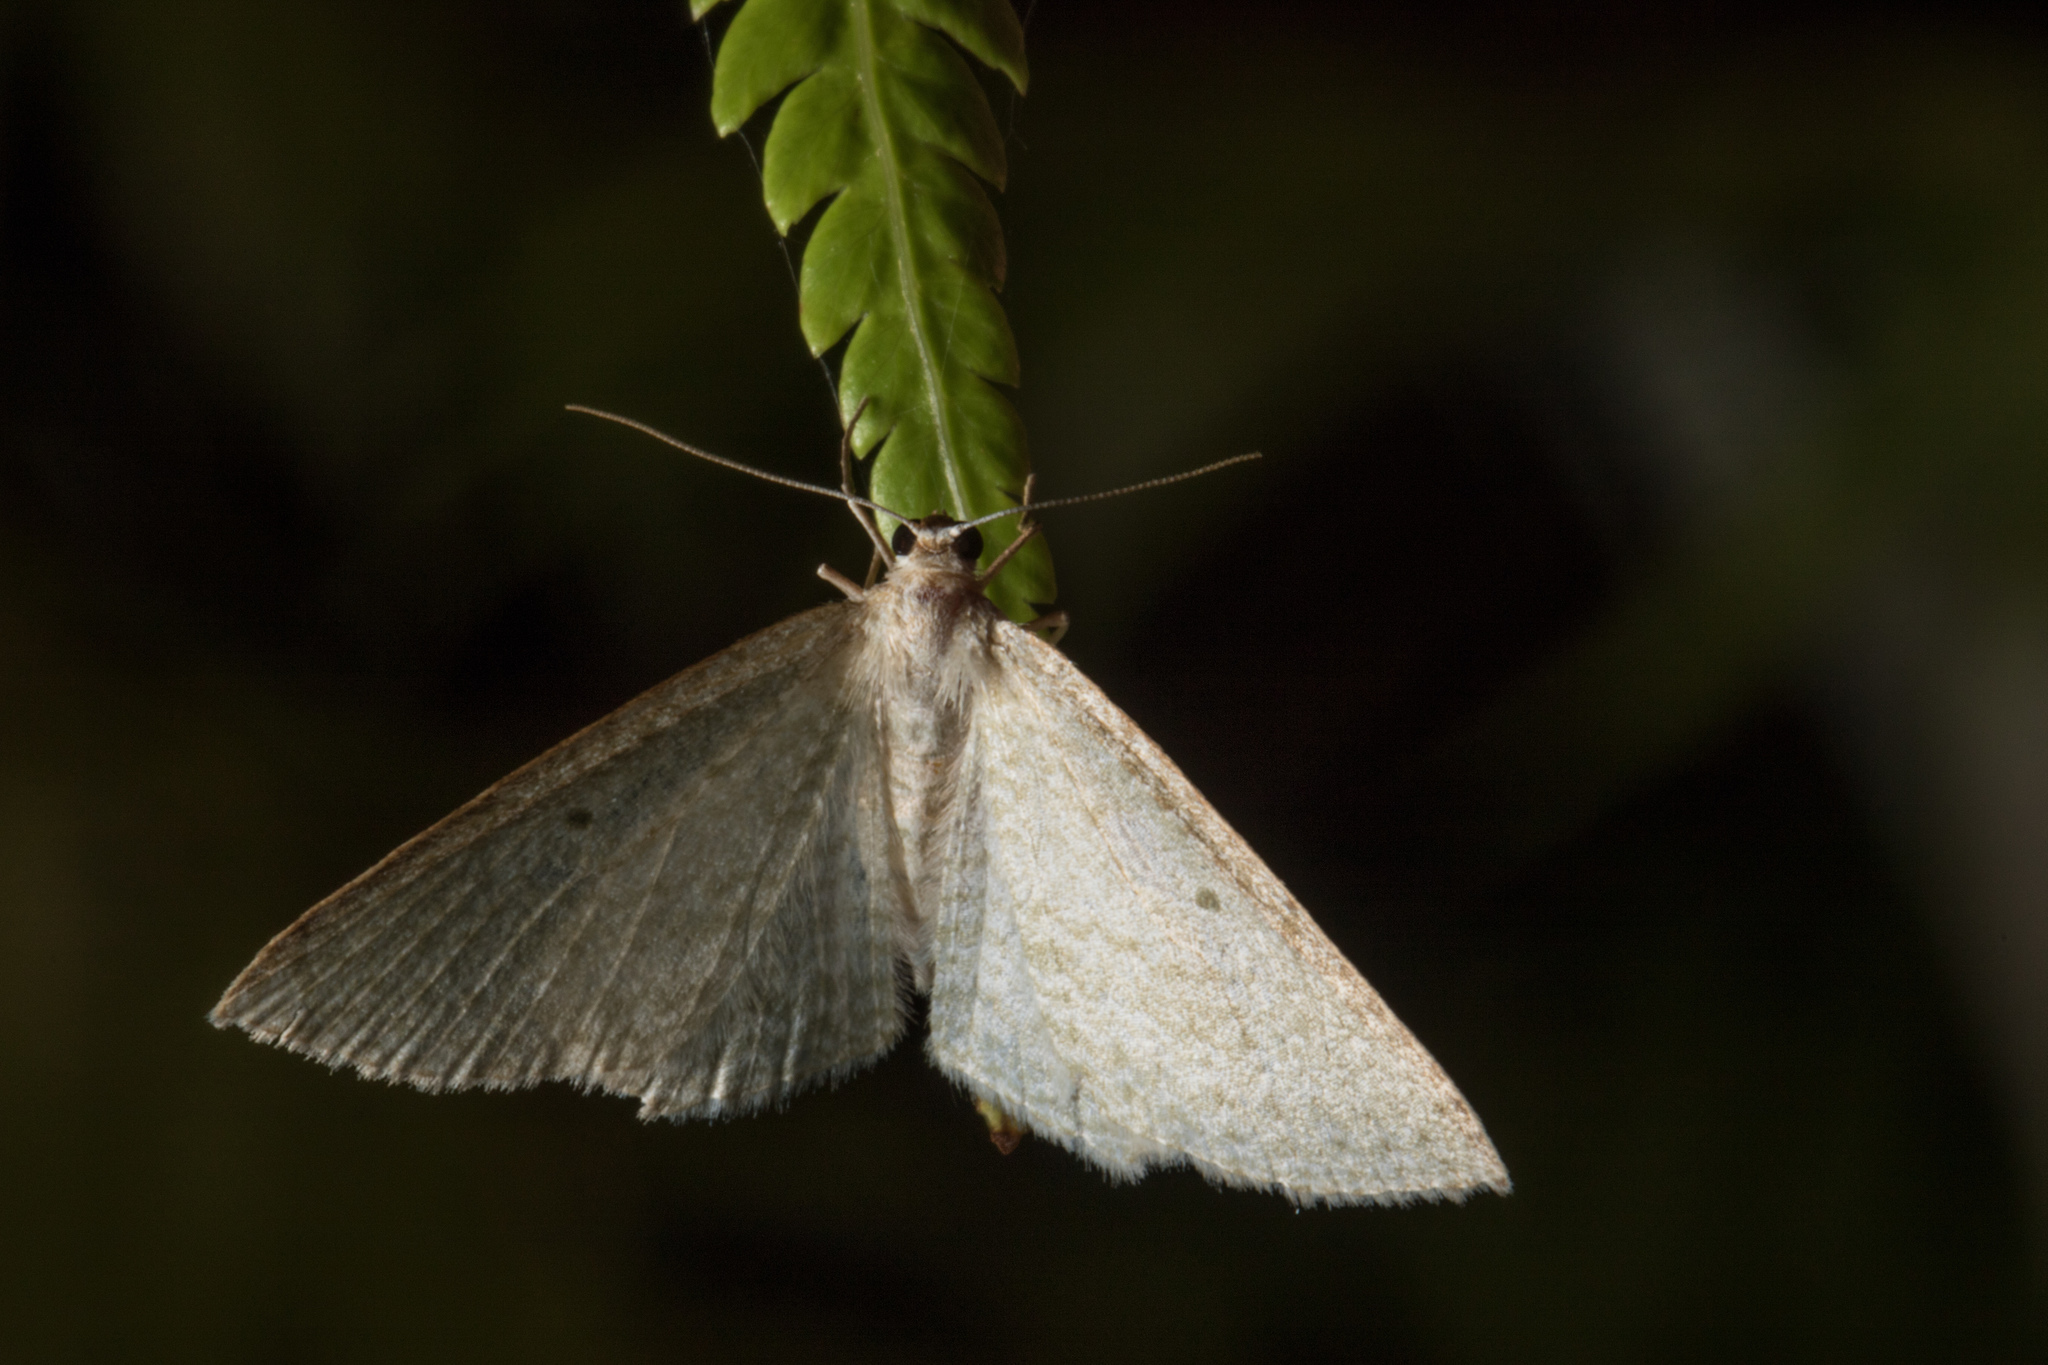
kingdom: Animalia
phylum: Arthropoda
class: Insecta
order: Lepidoptera
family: Geometridae
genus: Poecilasthena
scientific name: Poecilasthena pulchraria
